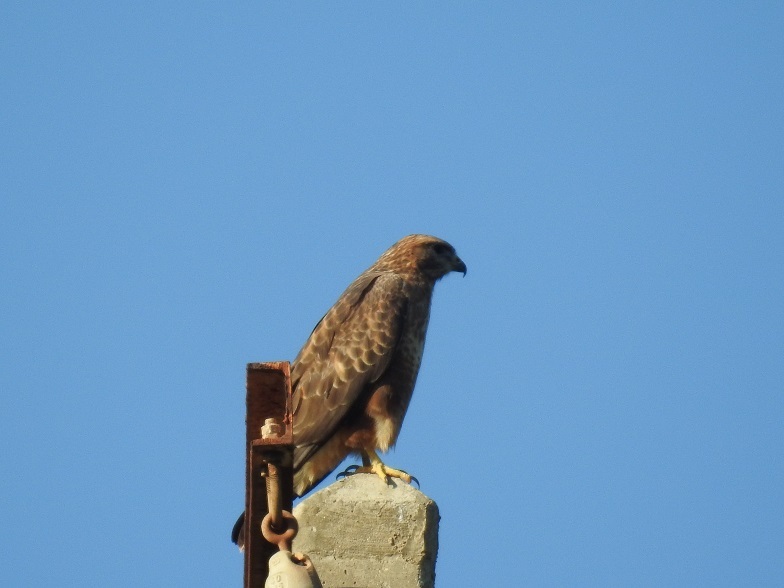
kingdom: Animalia
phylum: Chordata
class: Aves
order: Accipitriformes
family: Accipitridae
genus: Buteo
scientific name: Buteo rufinus
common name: Long-legged buzzard
